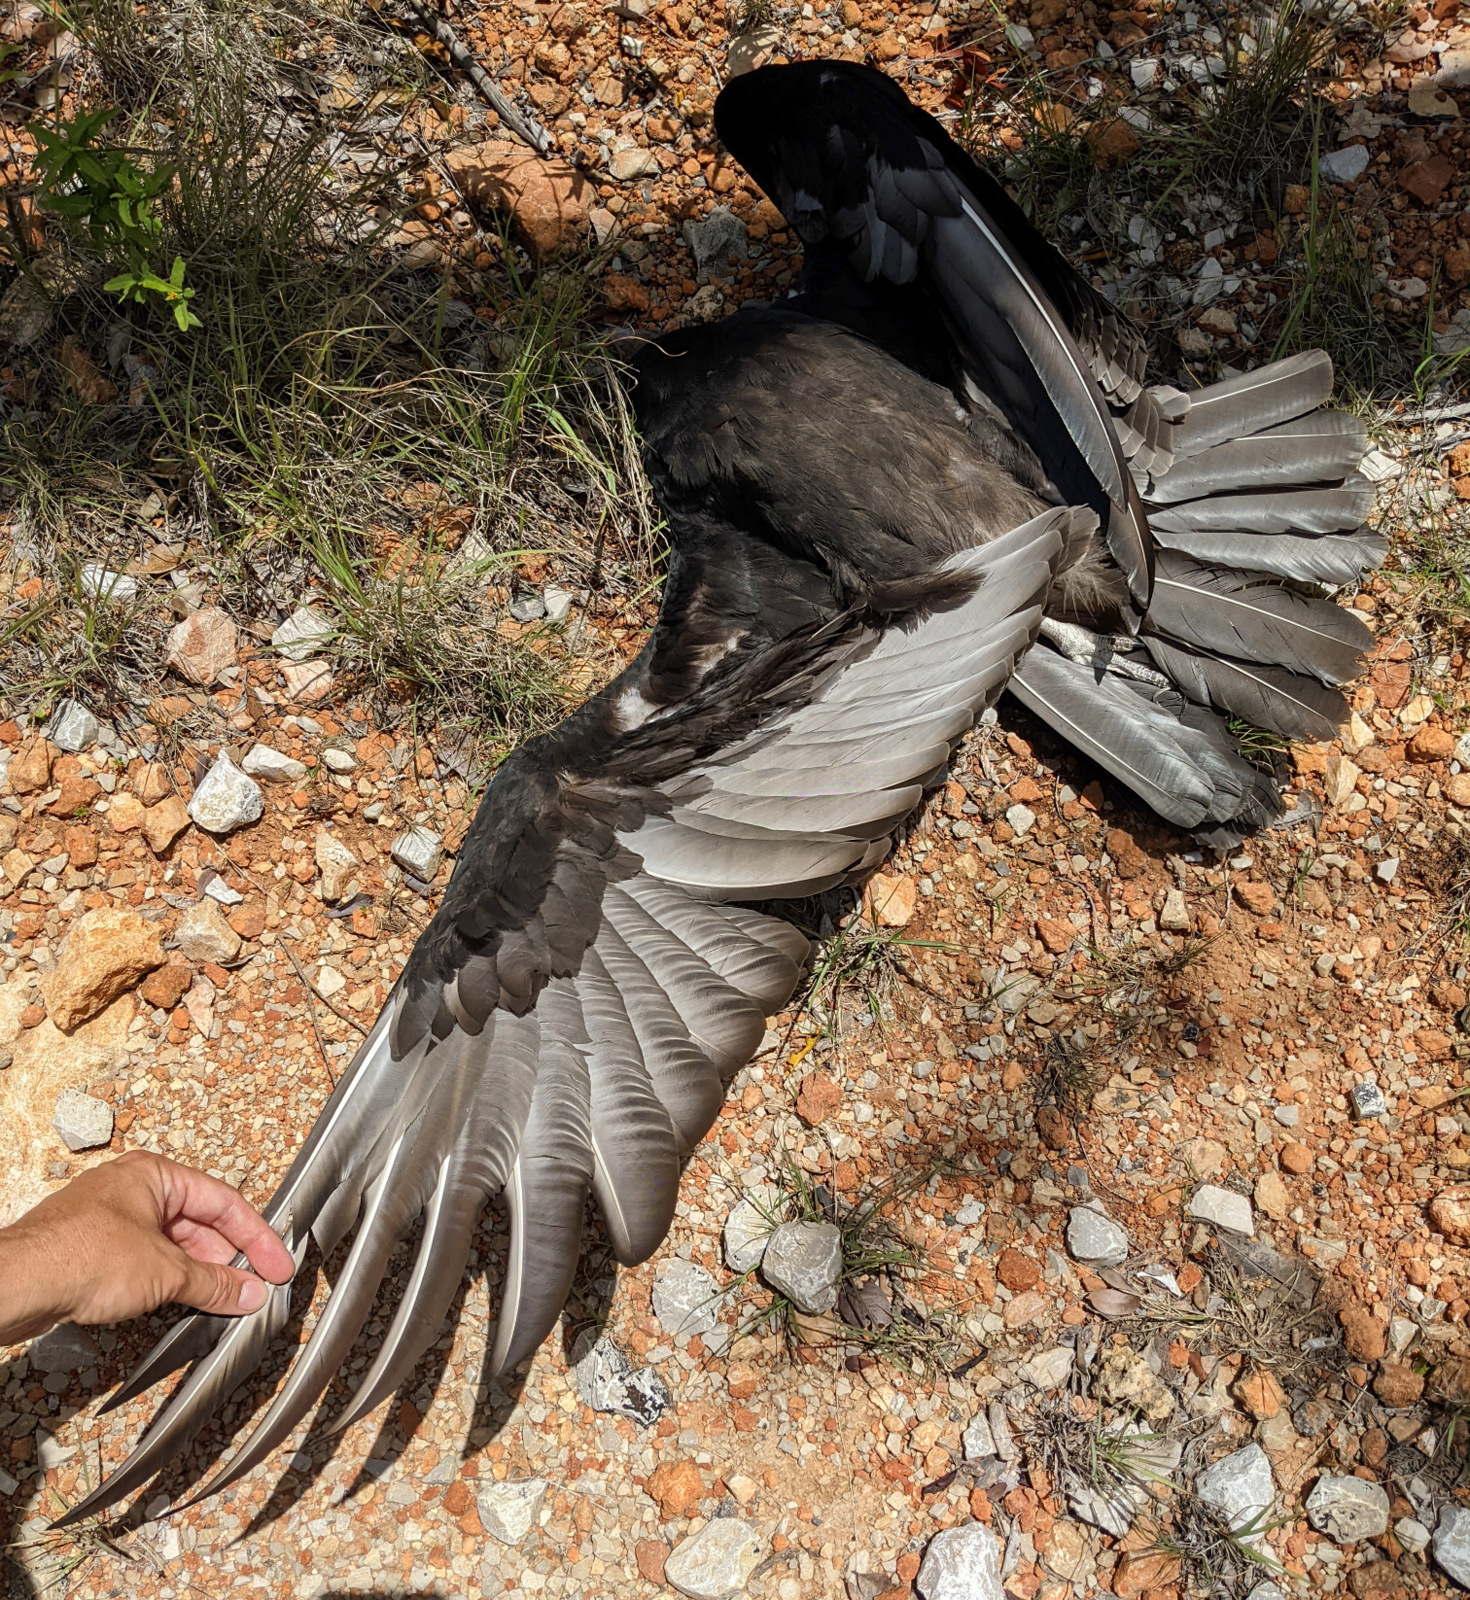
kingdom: Animalia
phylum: Chordata
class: Aves
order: Accipitriformes
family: Cathartidae
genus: Cathartes
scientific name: Cathartes aura
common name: Turkey vulture
